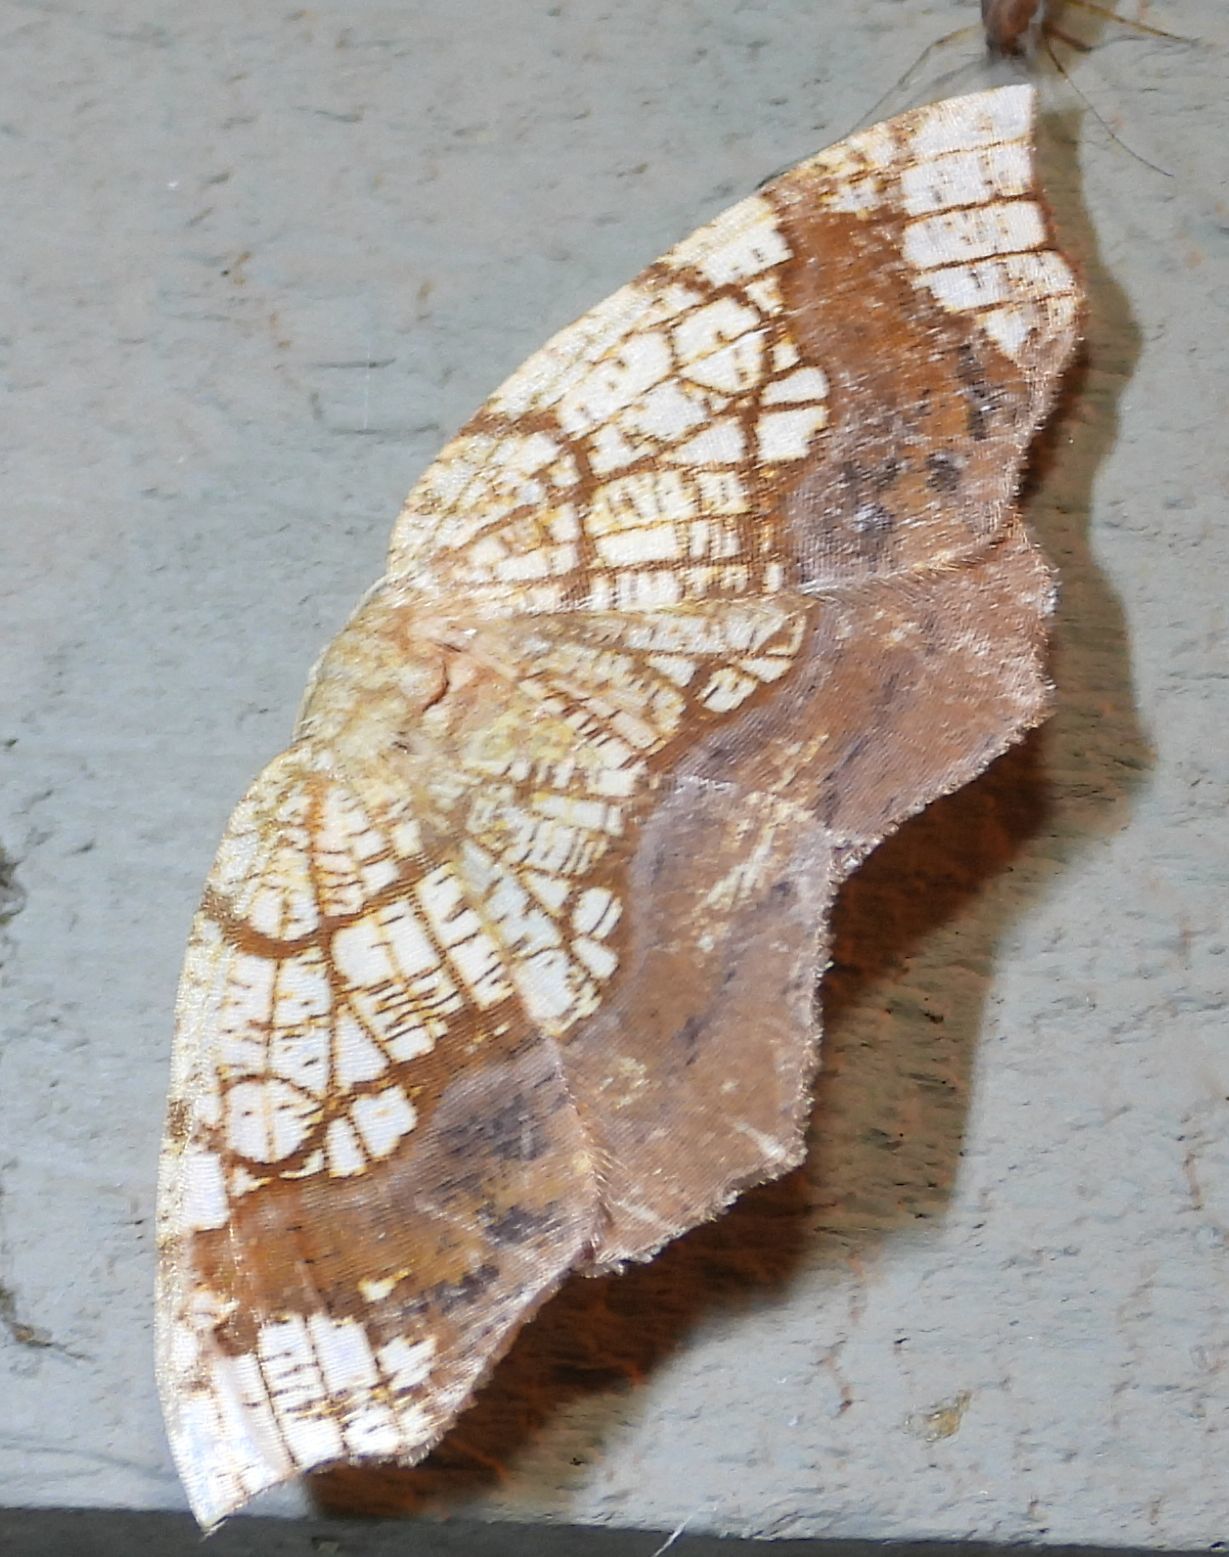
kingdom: Animalia
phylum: Arthropoda
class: Insecta
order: Lepidoptera
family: Geometridae
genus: Nematocampa
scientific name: Nematocampa resistaria
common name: Horned spanworm moth
